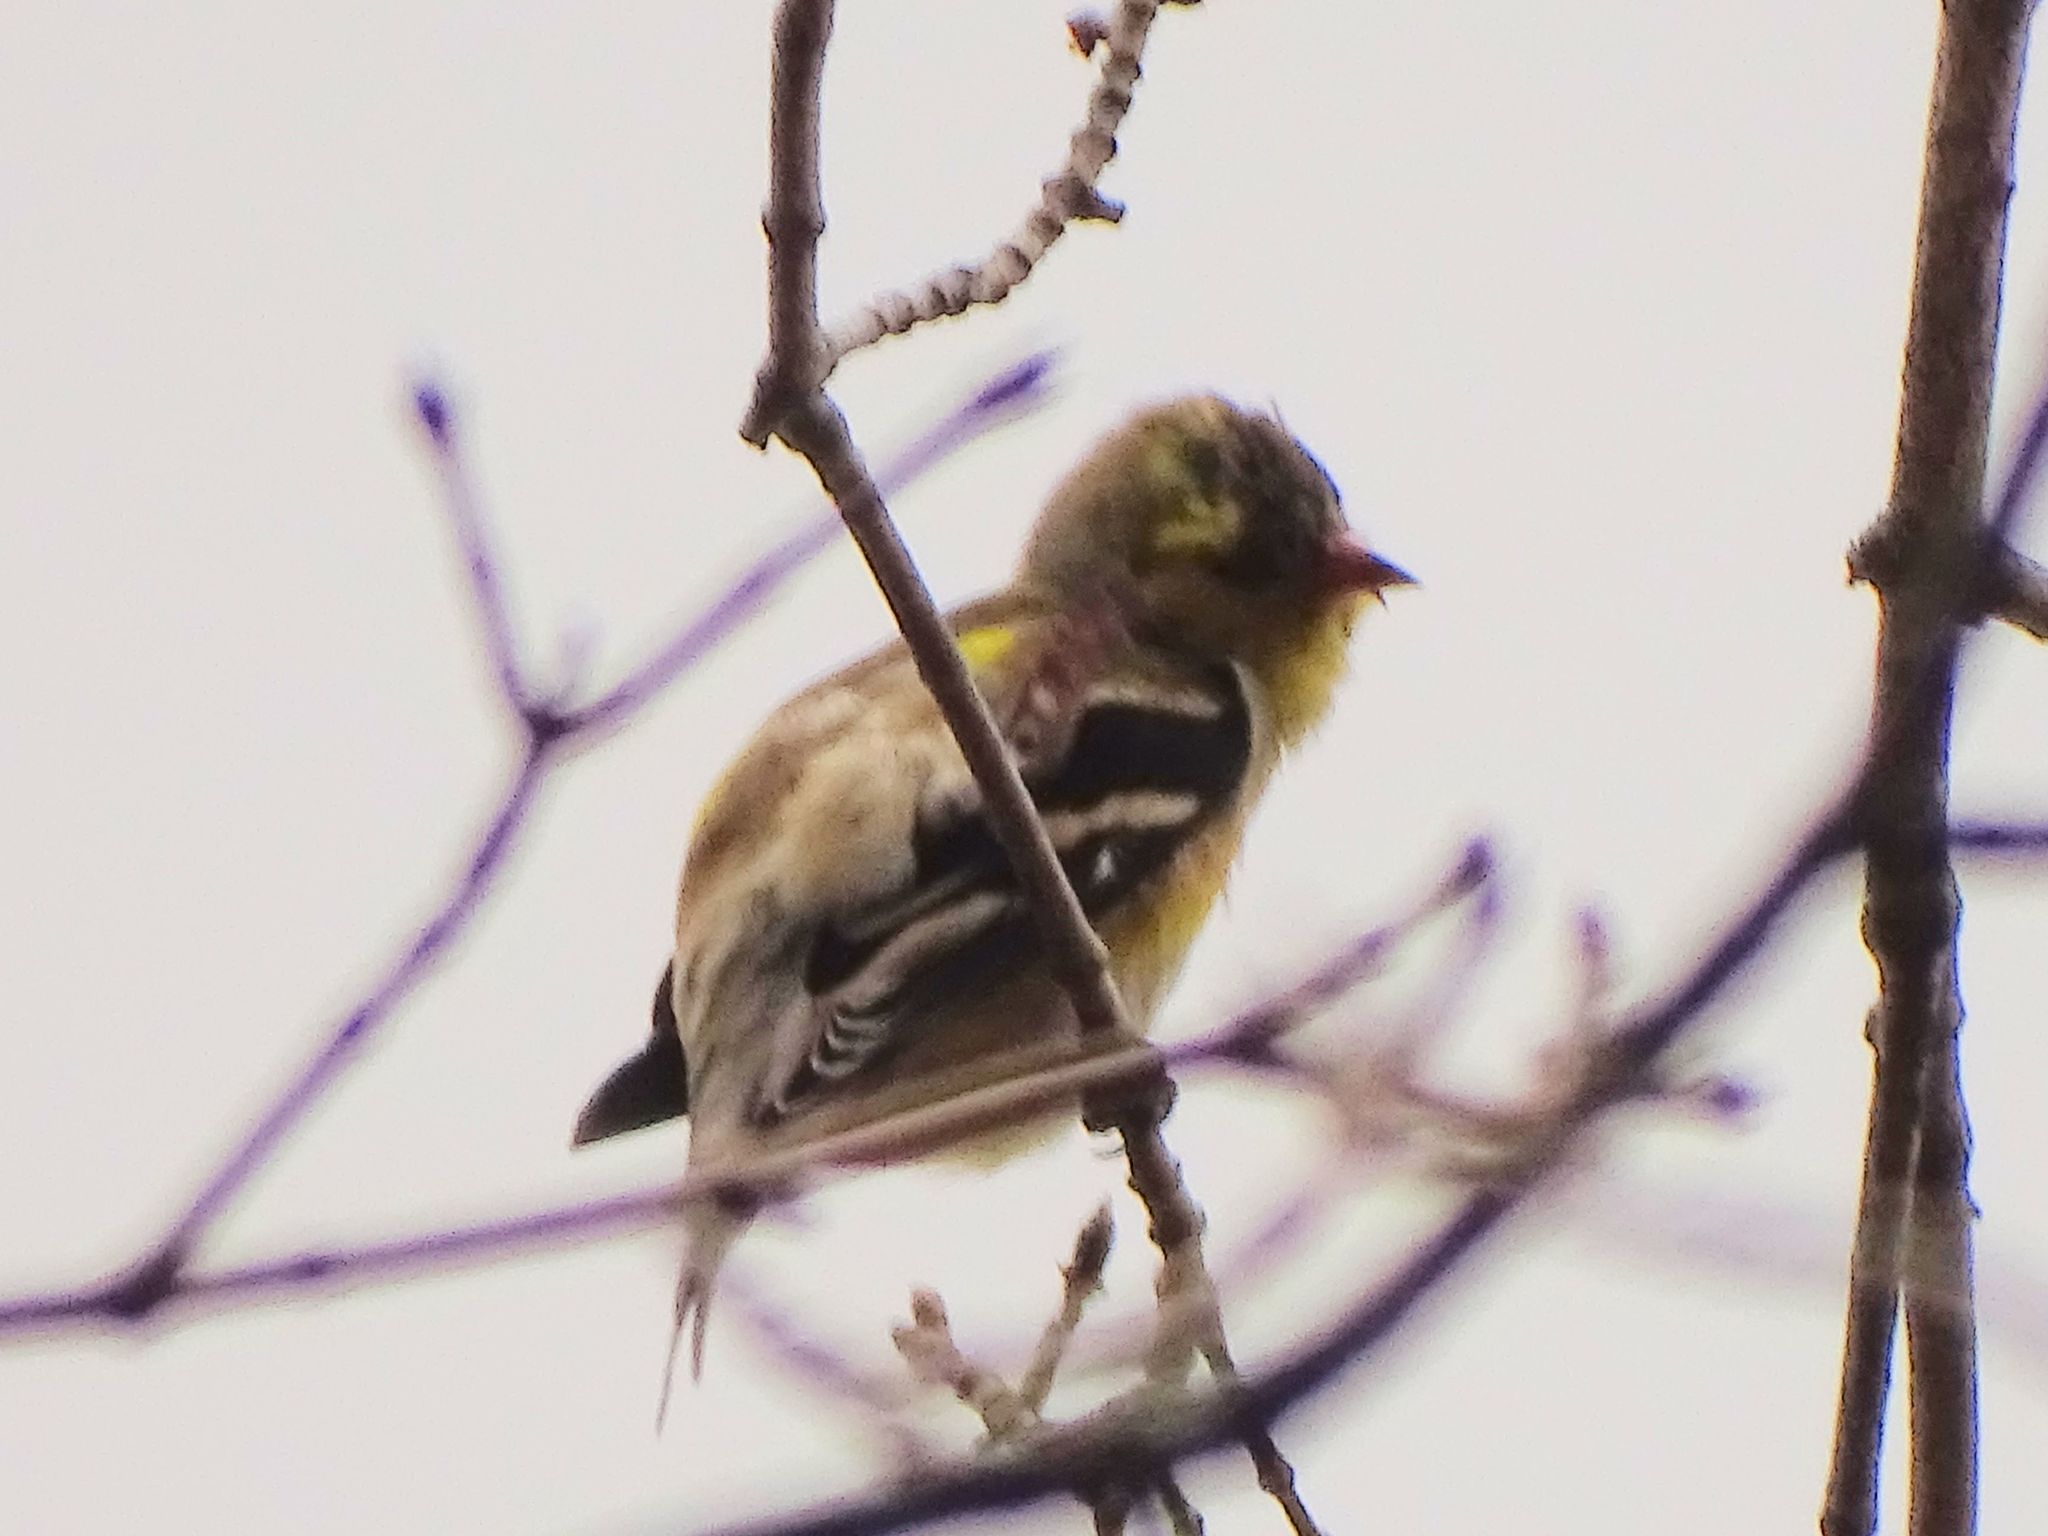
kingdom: Animalia
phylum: Chordata
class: Aves
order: Passeriformes
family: Fringillidae
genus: Spinus
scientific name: Spinus tristis
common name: American goldfinch
